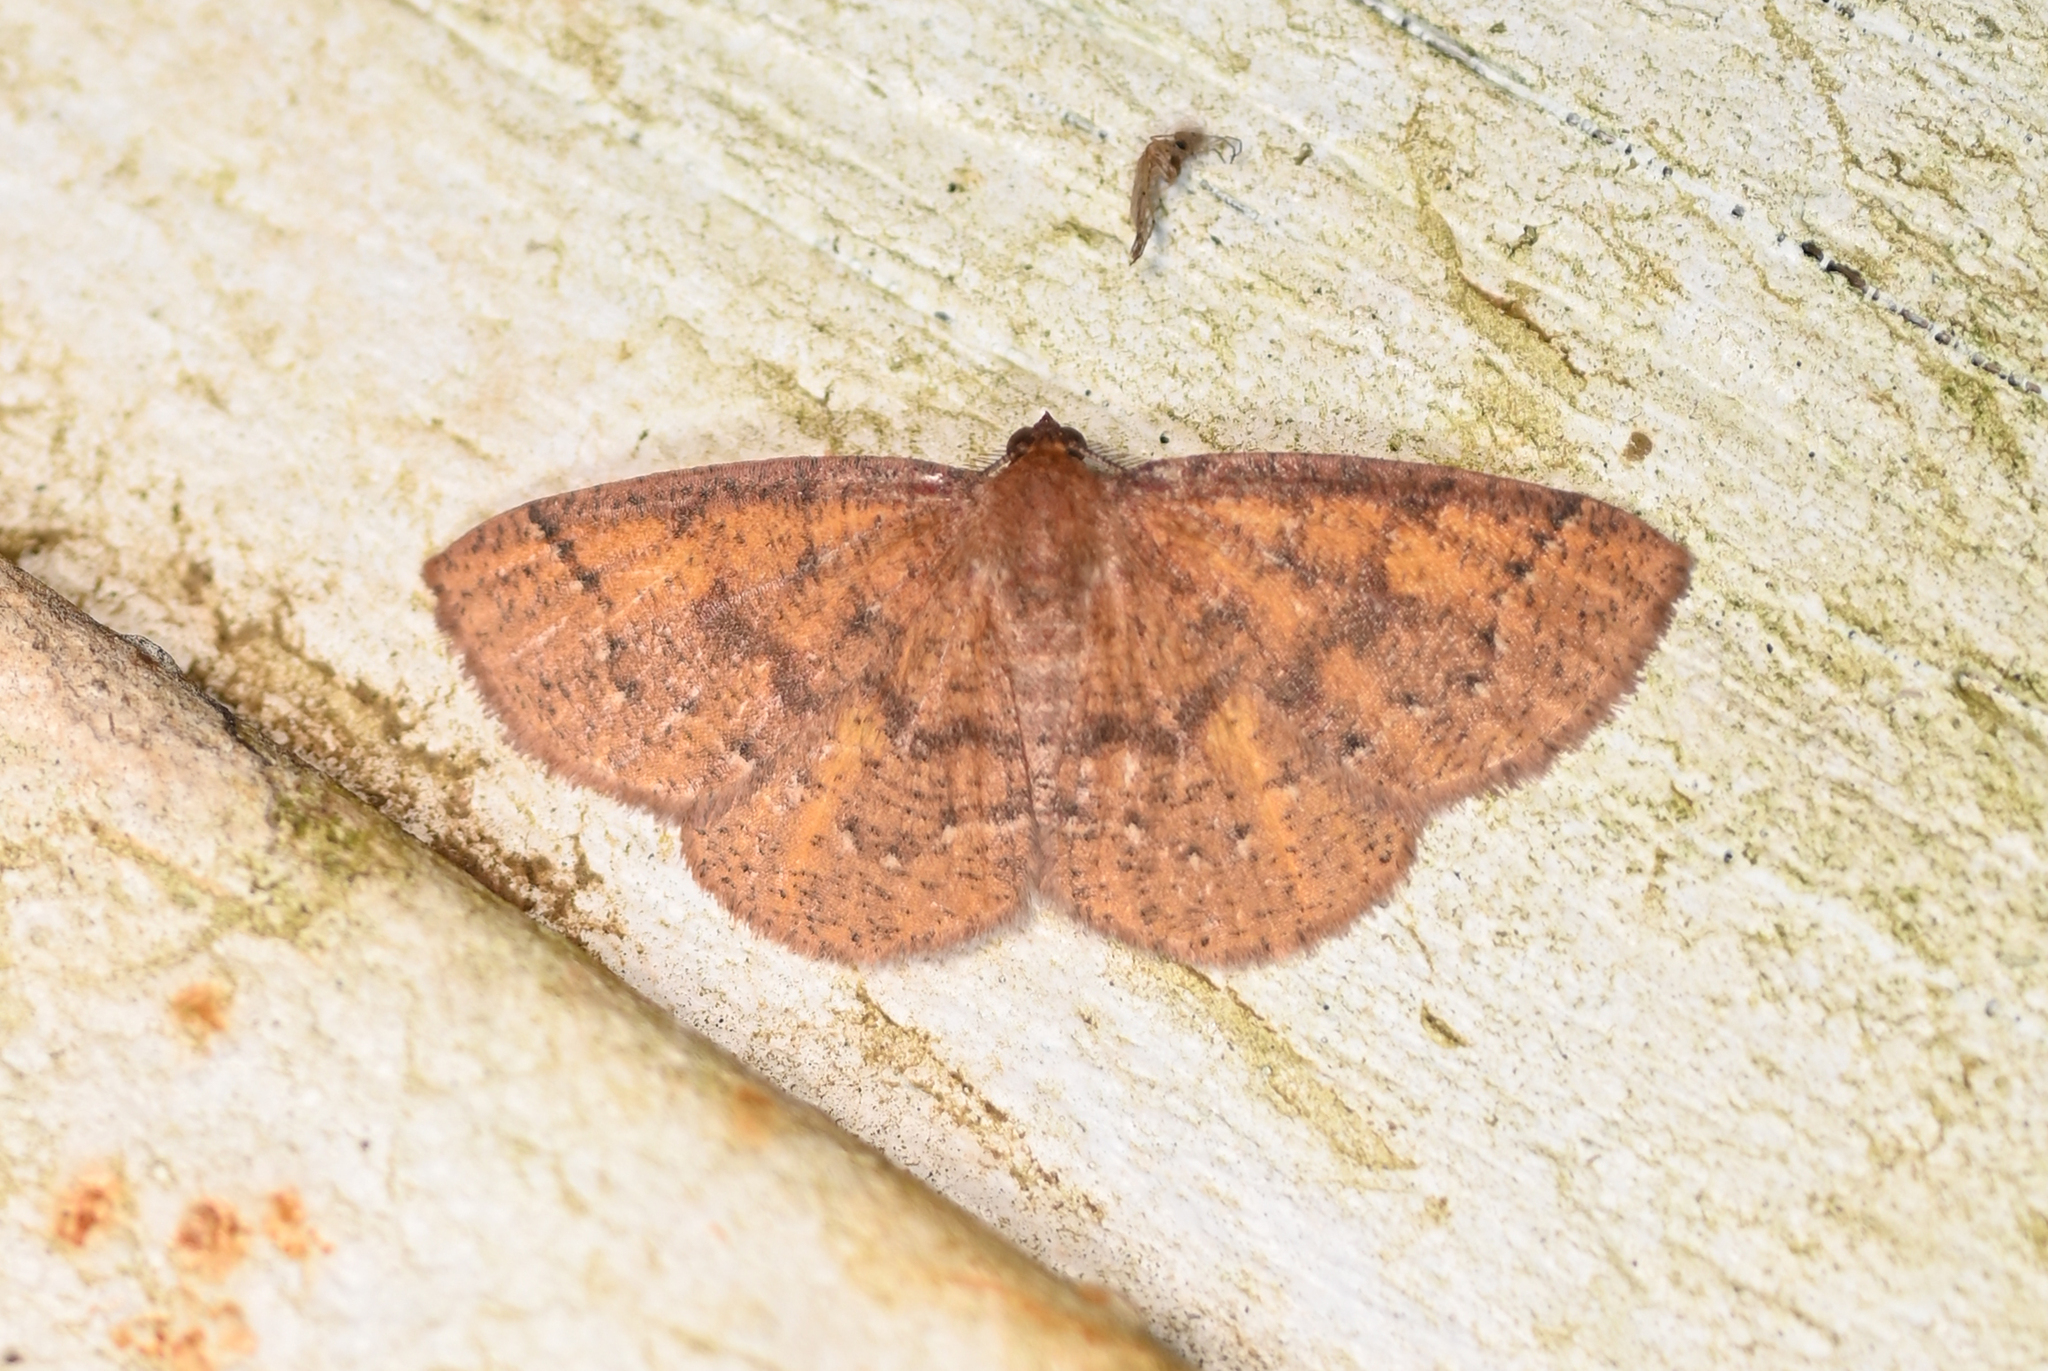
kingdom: Animalia
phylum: Arthropoda
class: Insecta
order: Lepidoptera
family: Geometridae
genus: Ilexia
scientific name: Ilexia intractata
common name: Black-dotted ruddy moth
